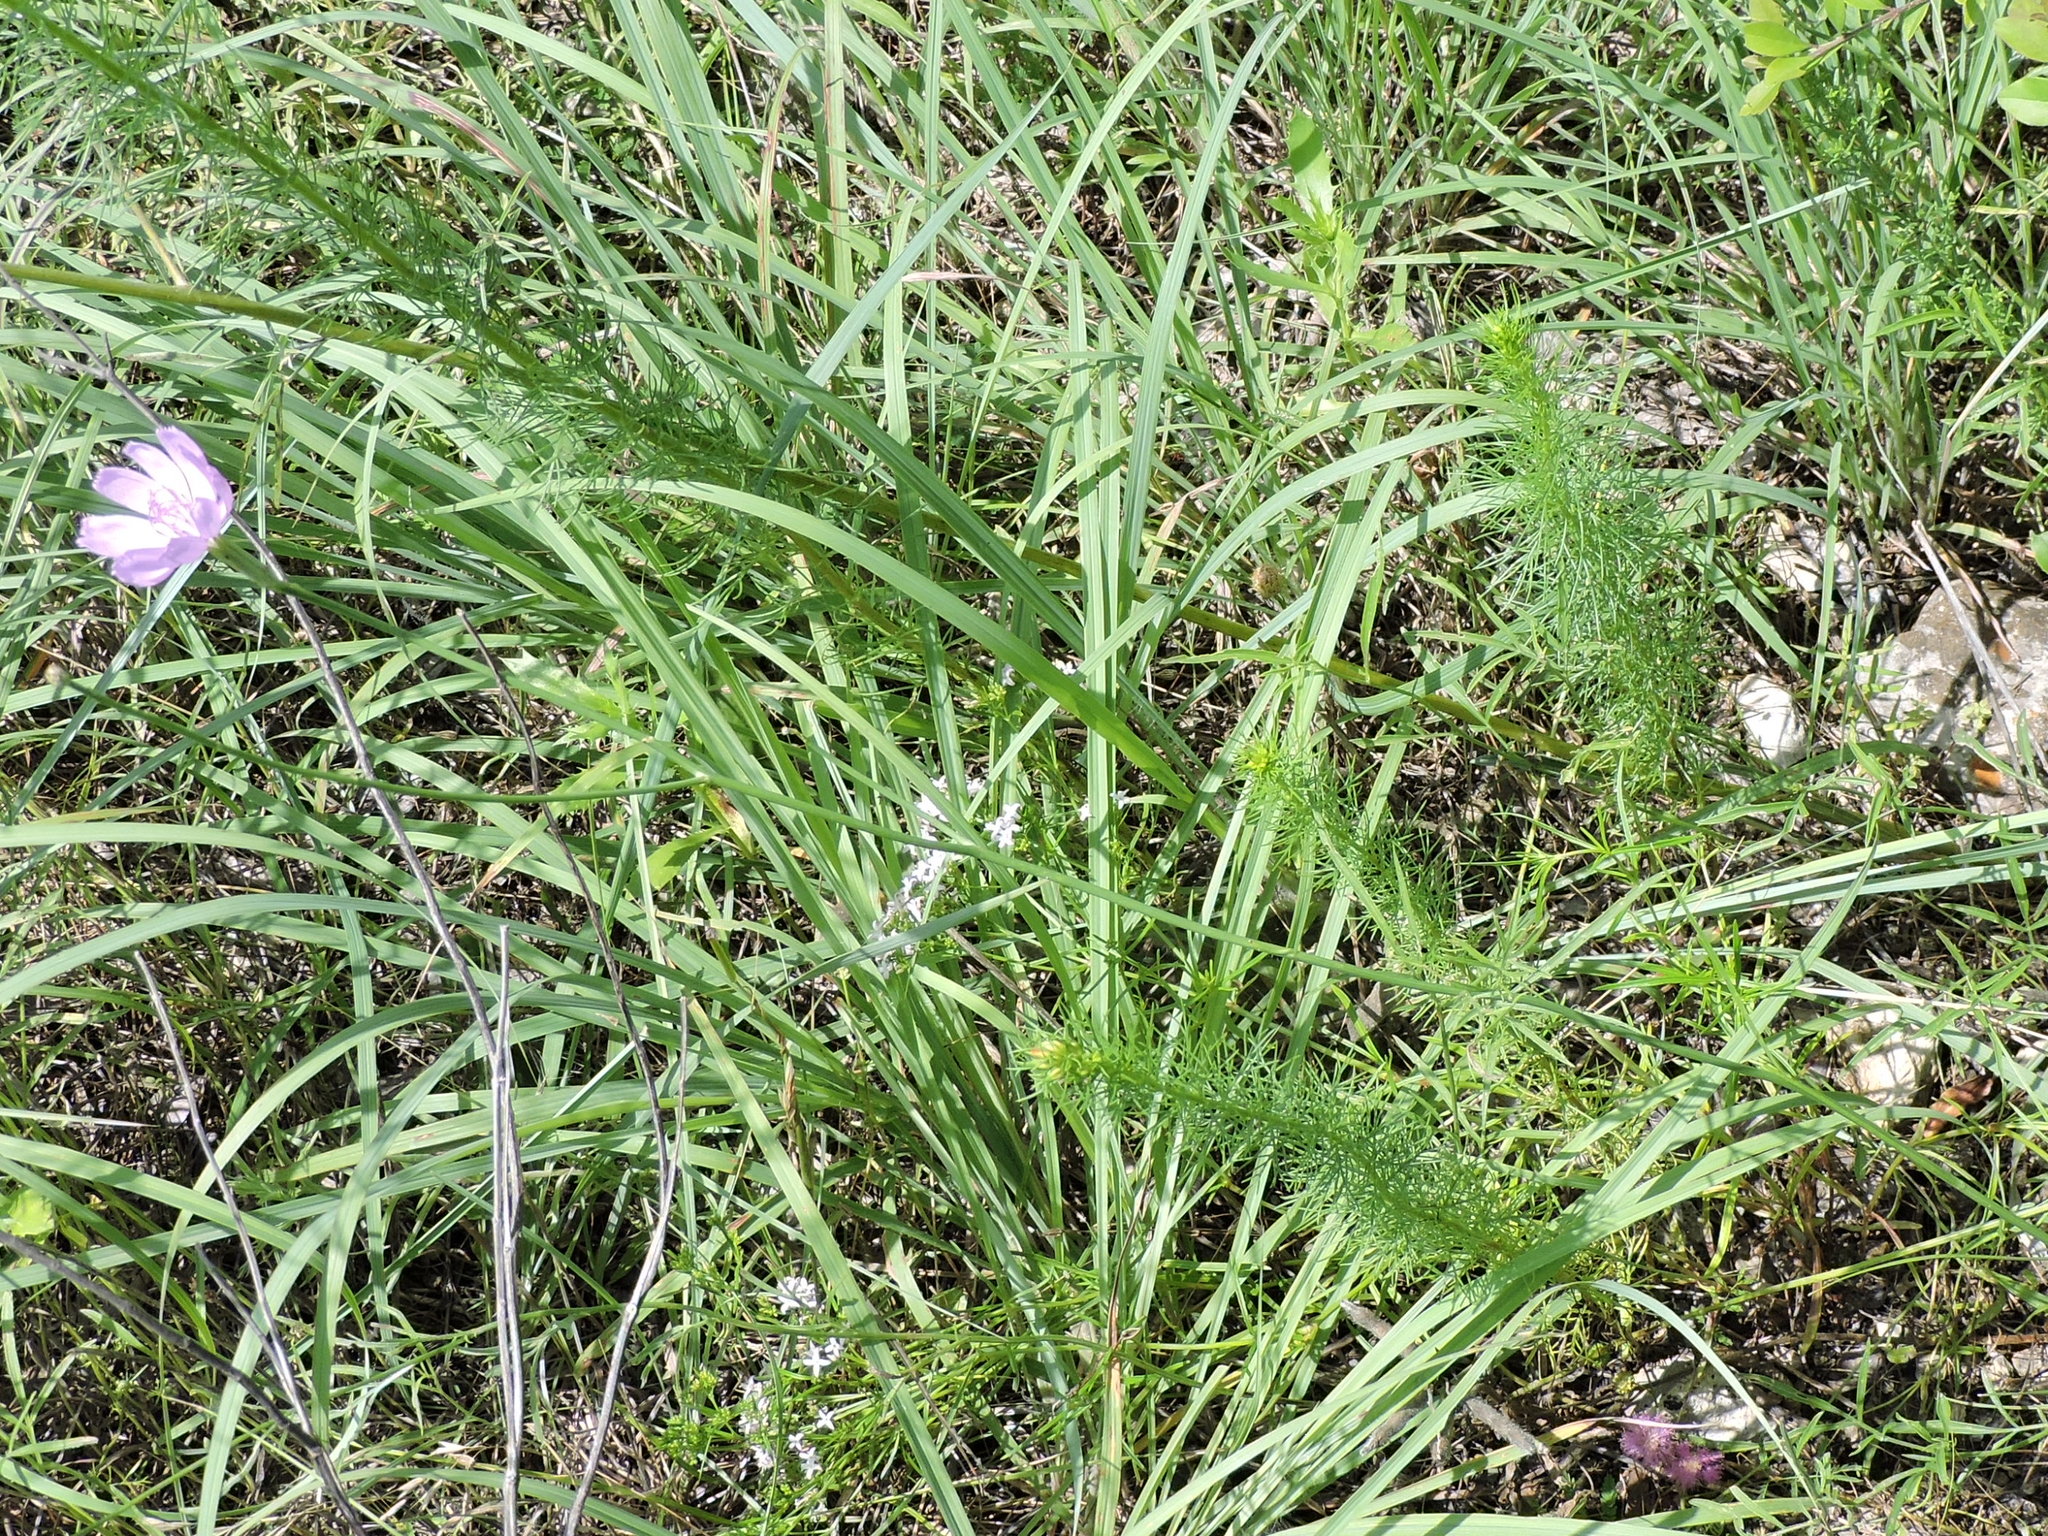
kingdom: Plantae
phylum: Tracheophyta
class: Magnoliopsida
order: Asterales
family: Asteraceae
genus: Lygodesmia
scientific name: Lygodesmia texana
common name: Texas skeleton-plant
